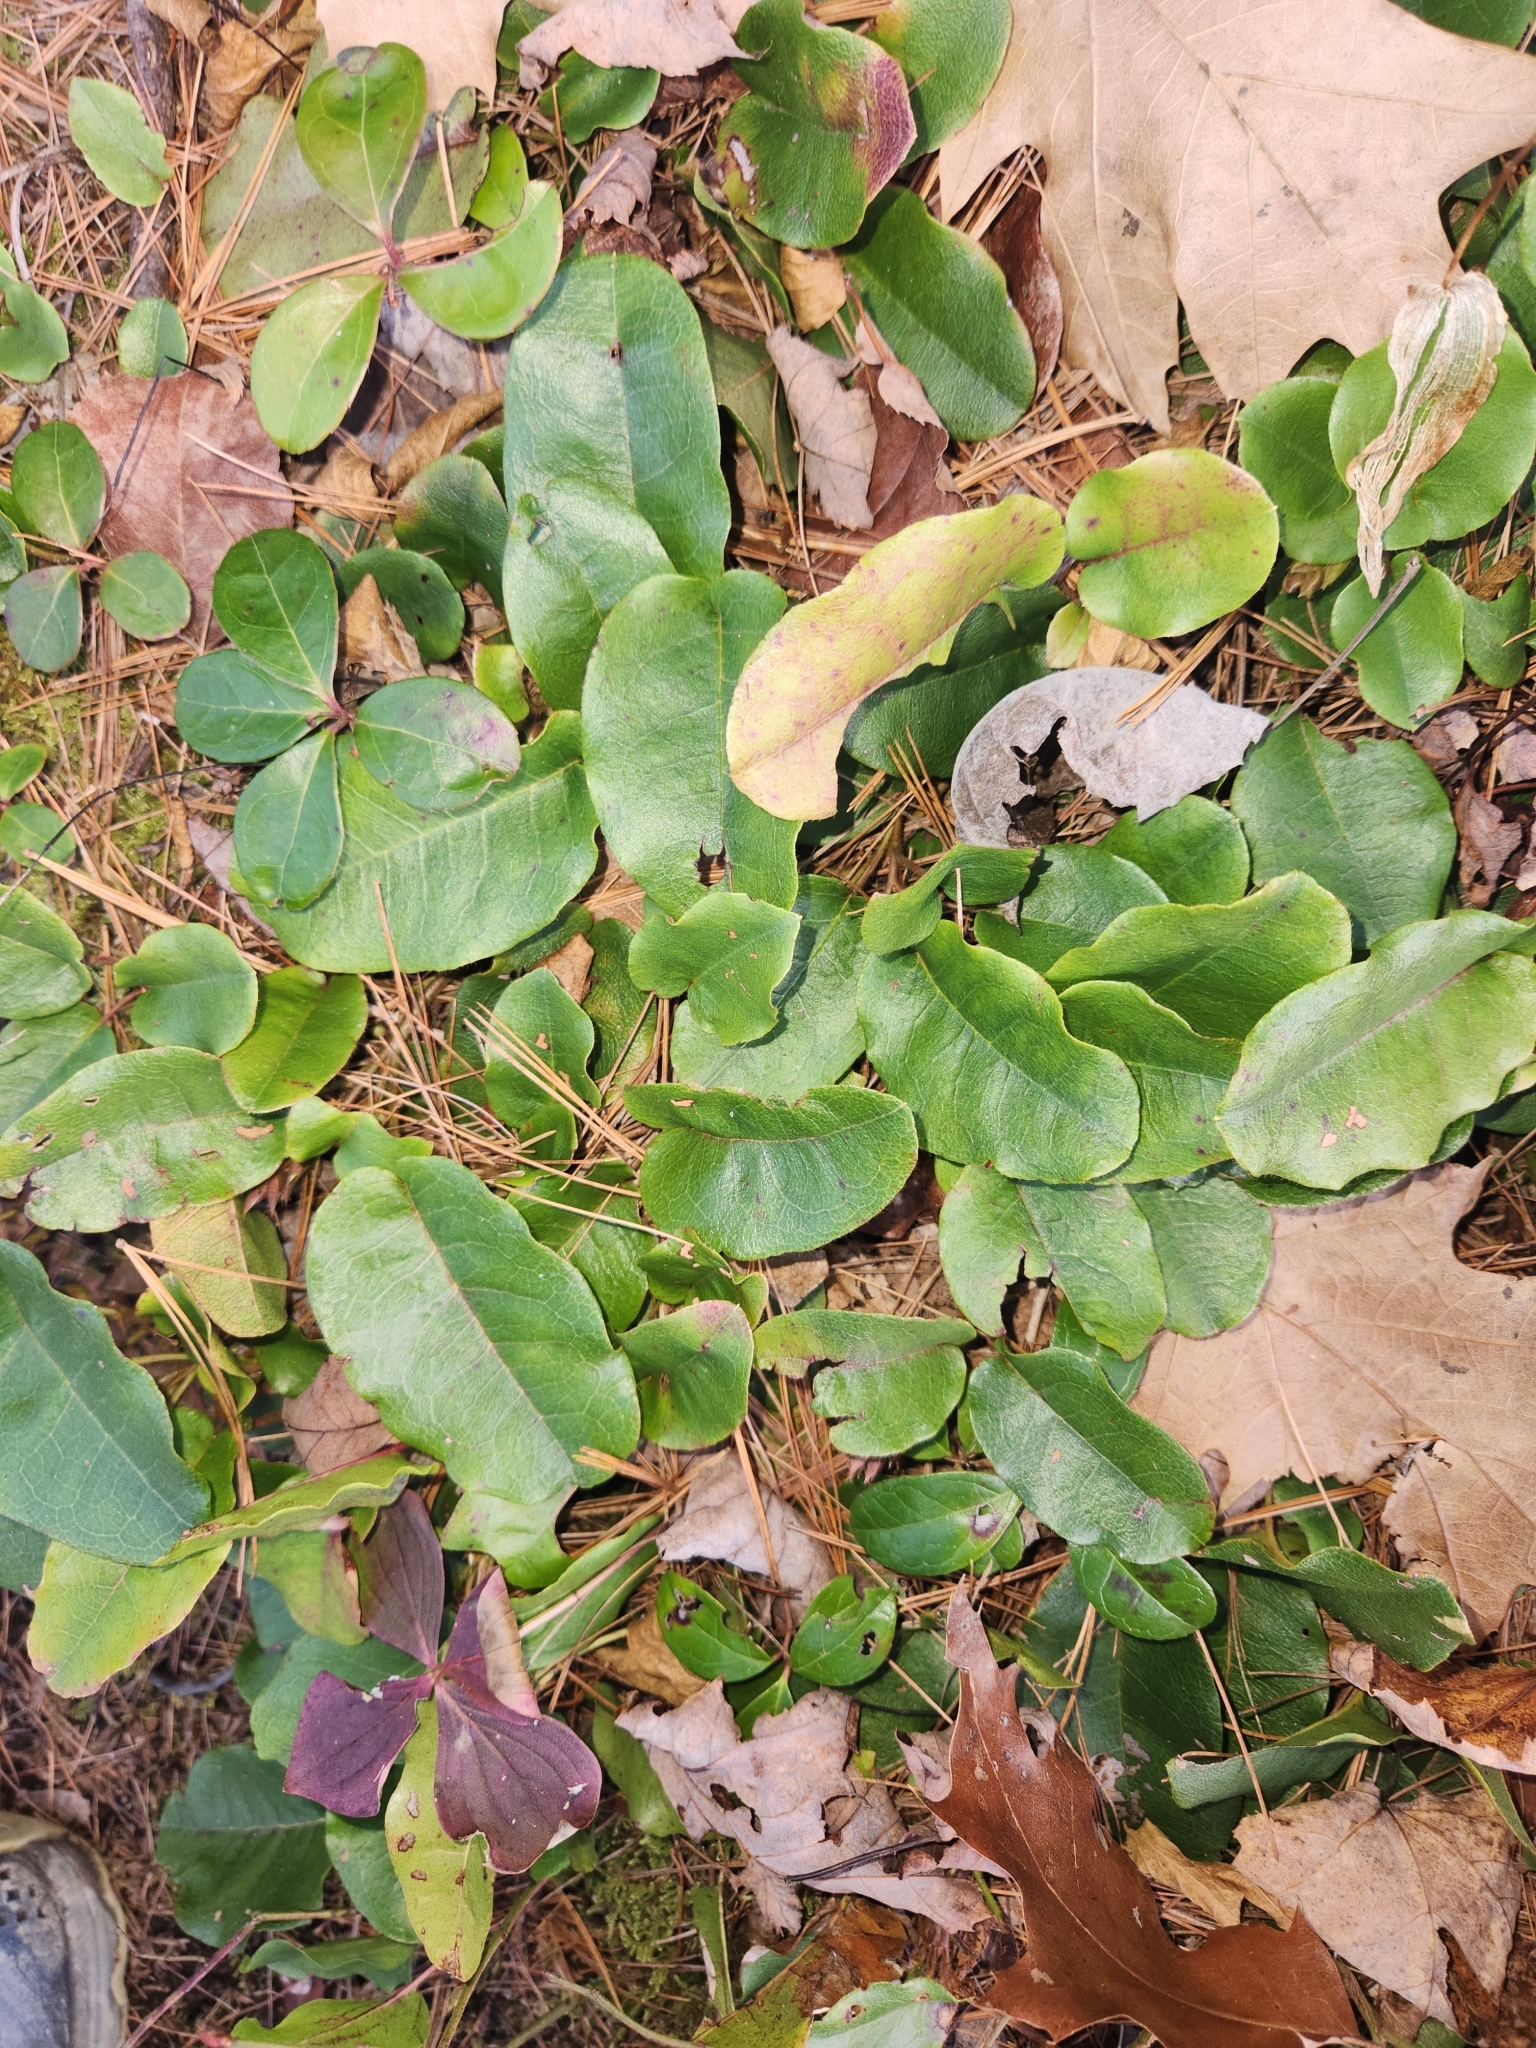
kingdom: Plantae
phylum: Tracheophyta
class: Magnoliopsida
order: Ericales
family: Ericaceae
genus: Epigaea
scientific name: Epigaea repens
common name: Gravelroot
